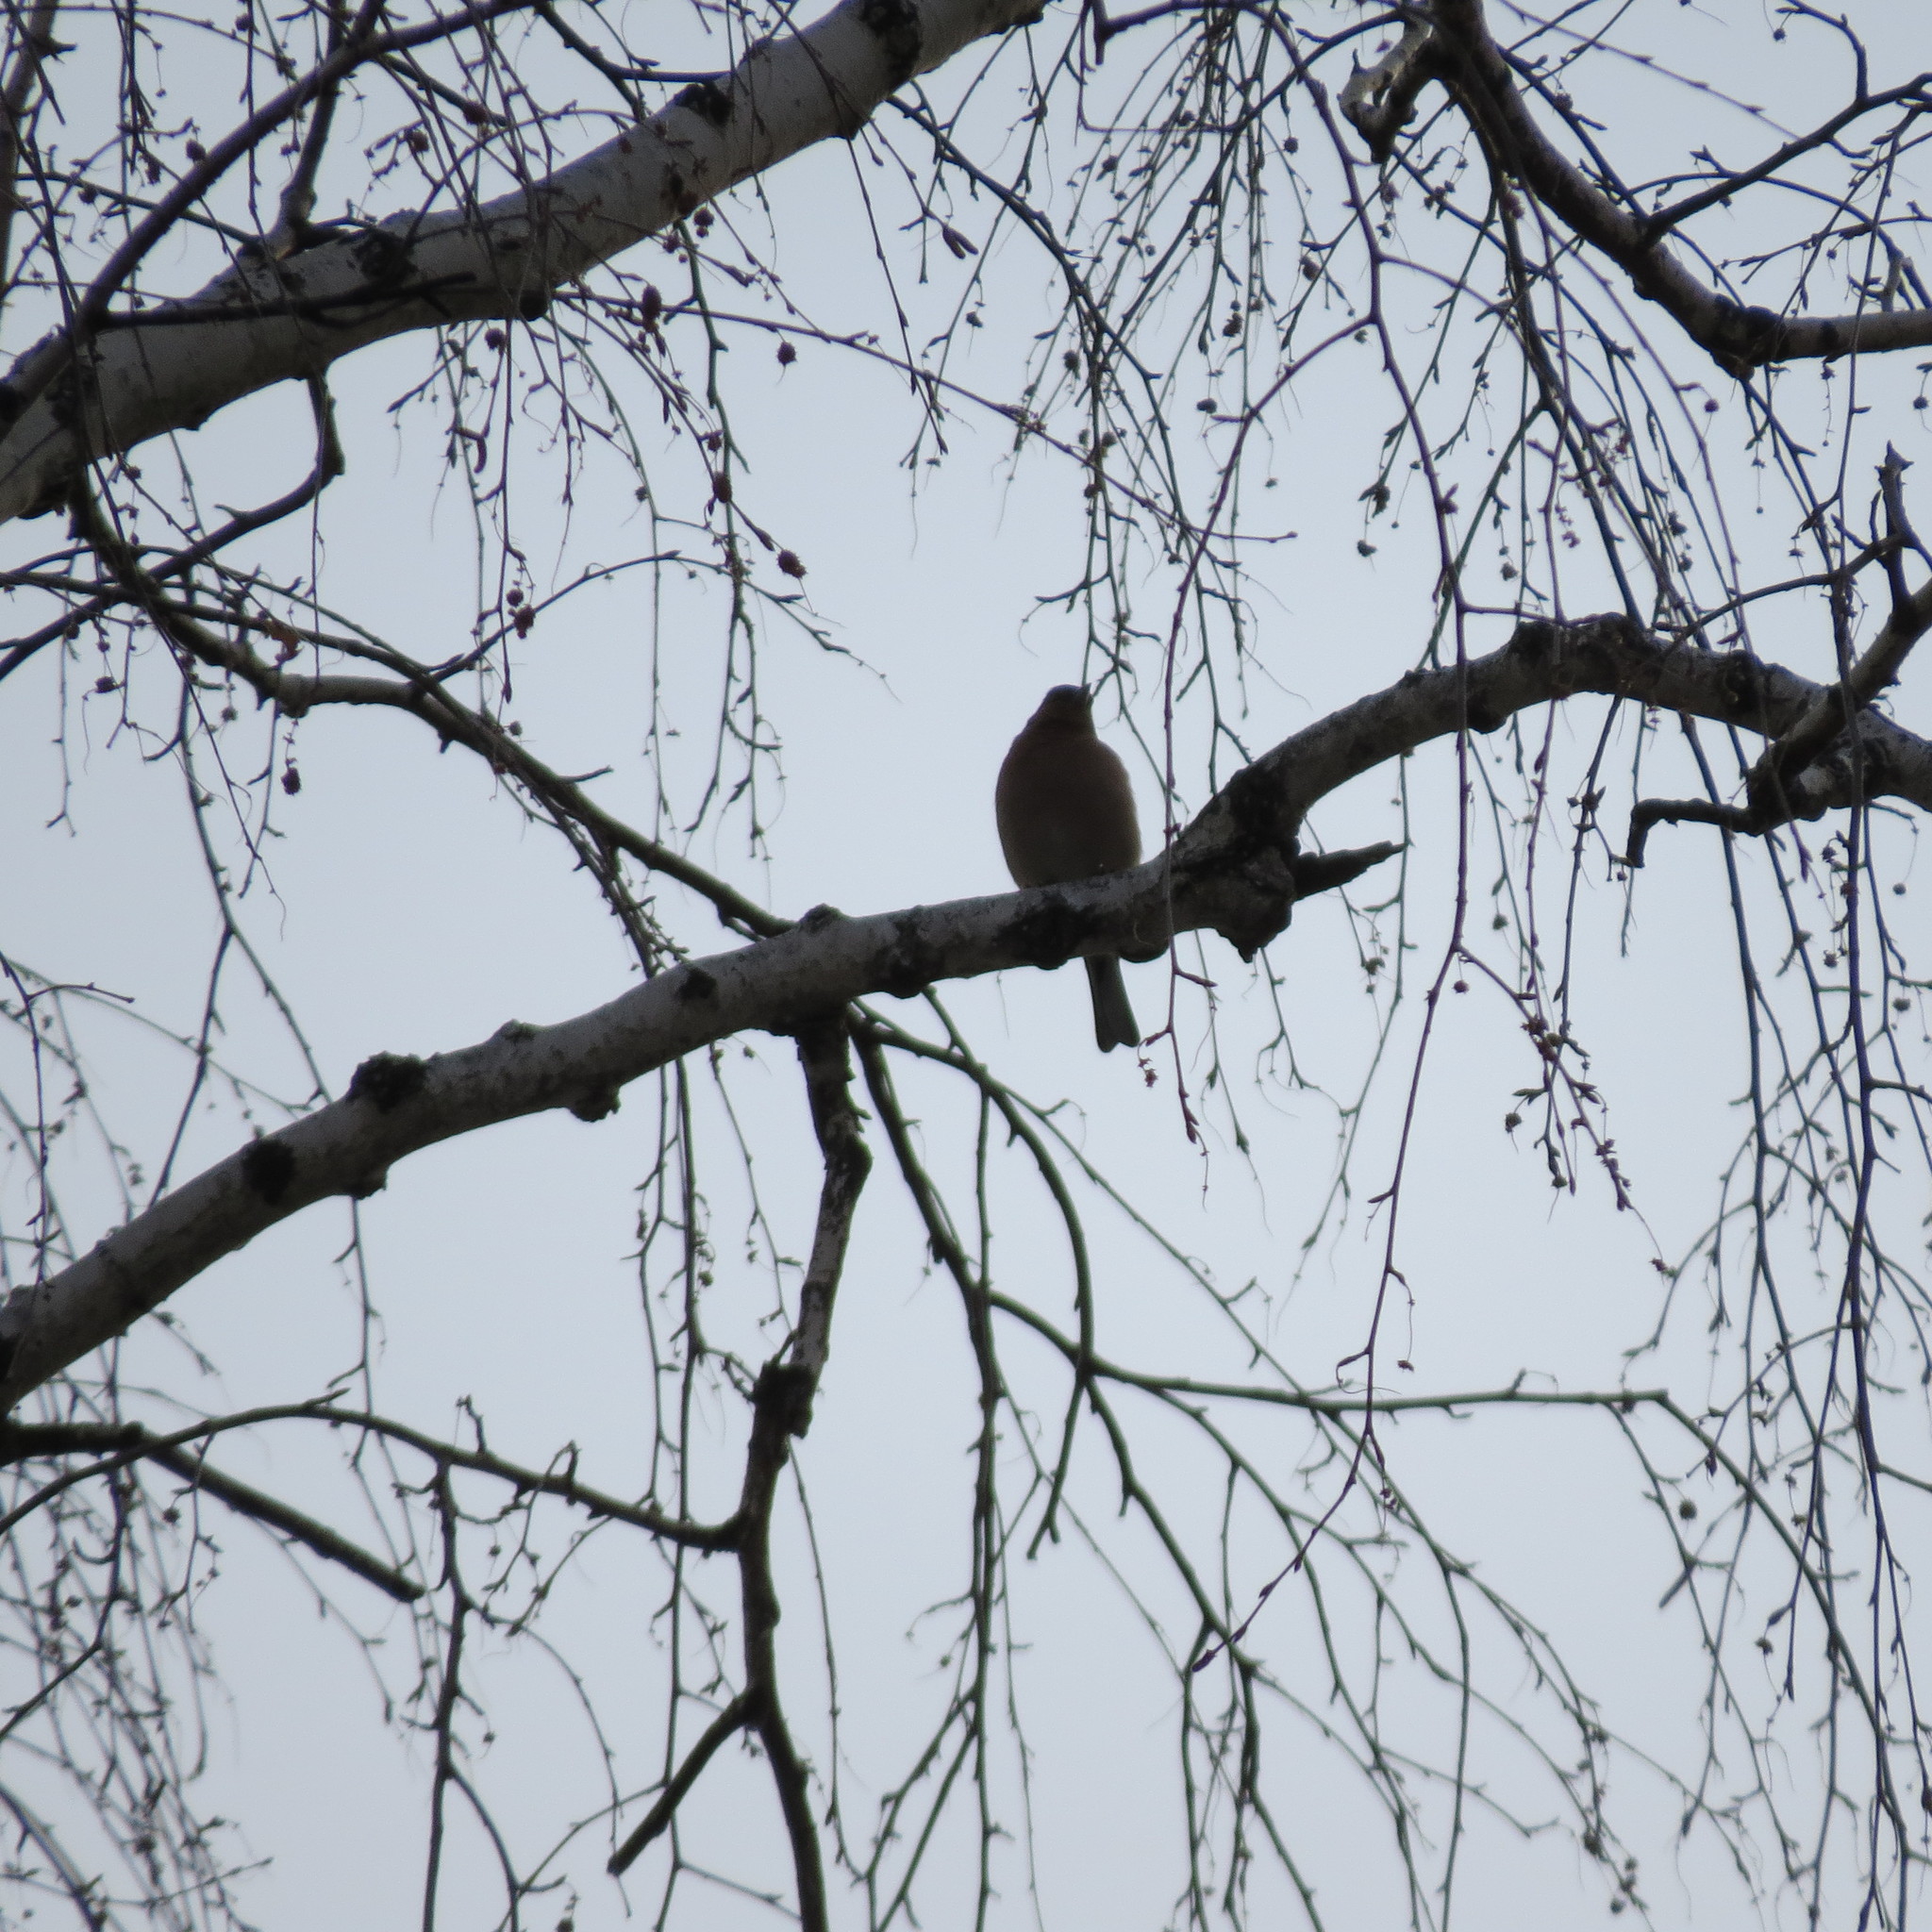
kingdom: Animalia
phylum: Chordata
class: Aves
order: Passeriformes
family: Fringillidae
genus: Fringilla
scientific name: Fringilla coelebs
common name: Common chaffinch
